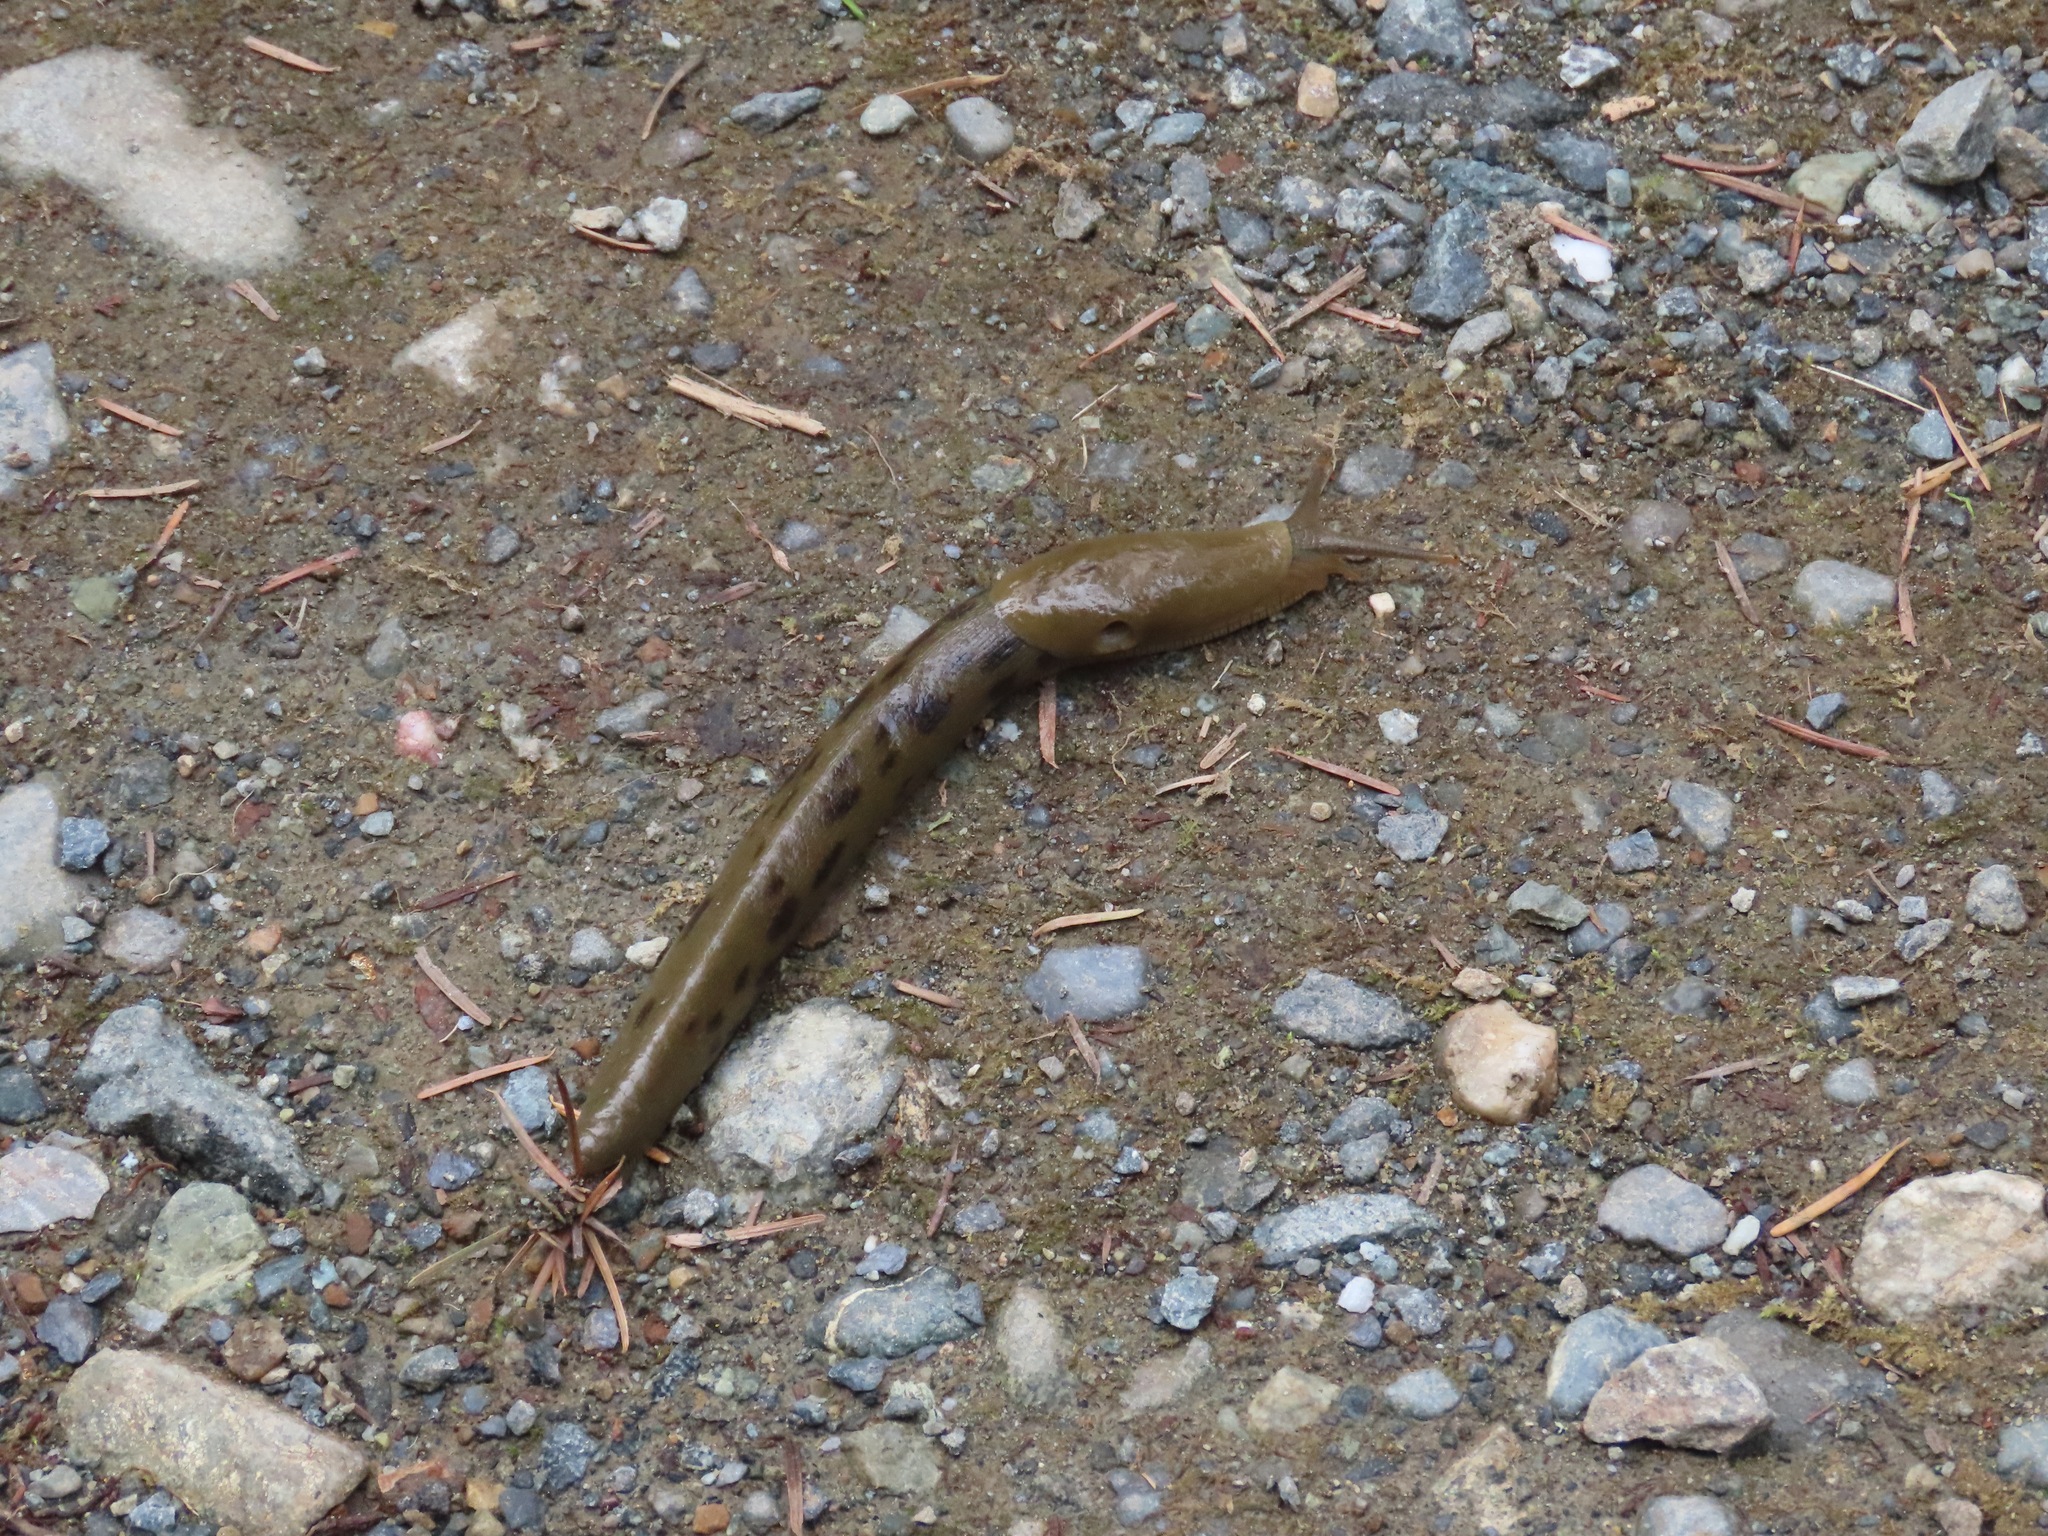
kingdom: Animalia
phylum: Mollusca
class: Gastropoda
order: Stylommatophora
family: Ariolimacidae
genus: Ariolimax
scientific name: Ariolimax columbianus
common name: Pacific banana slug
